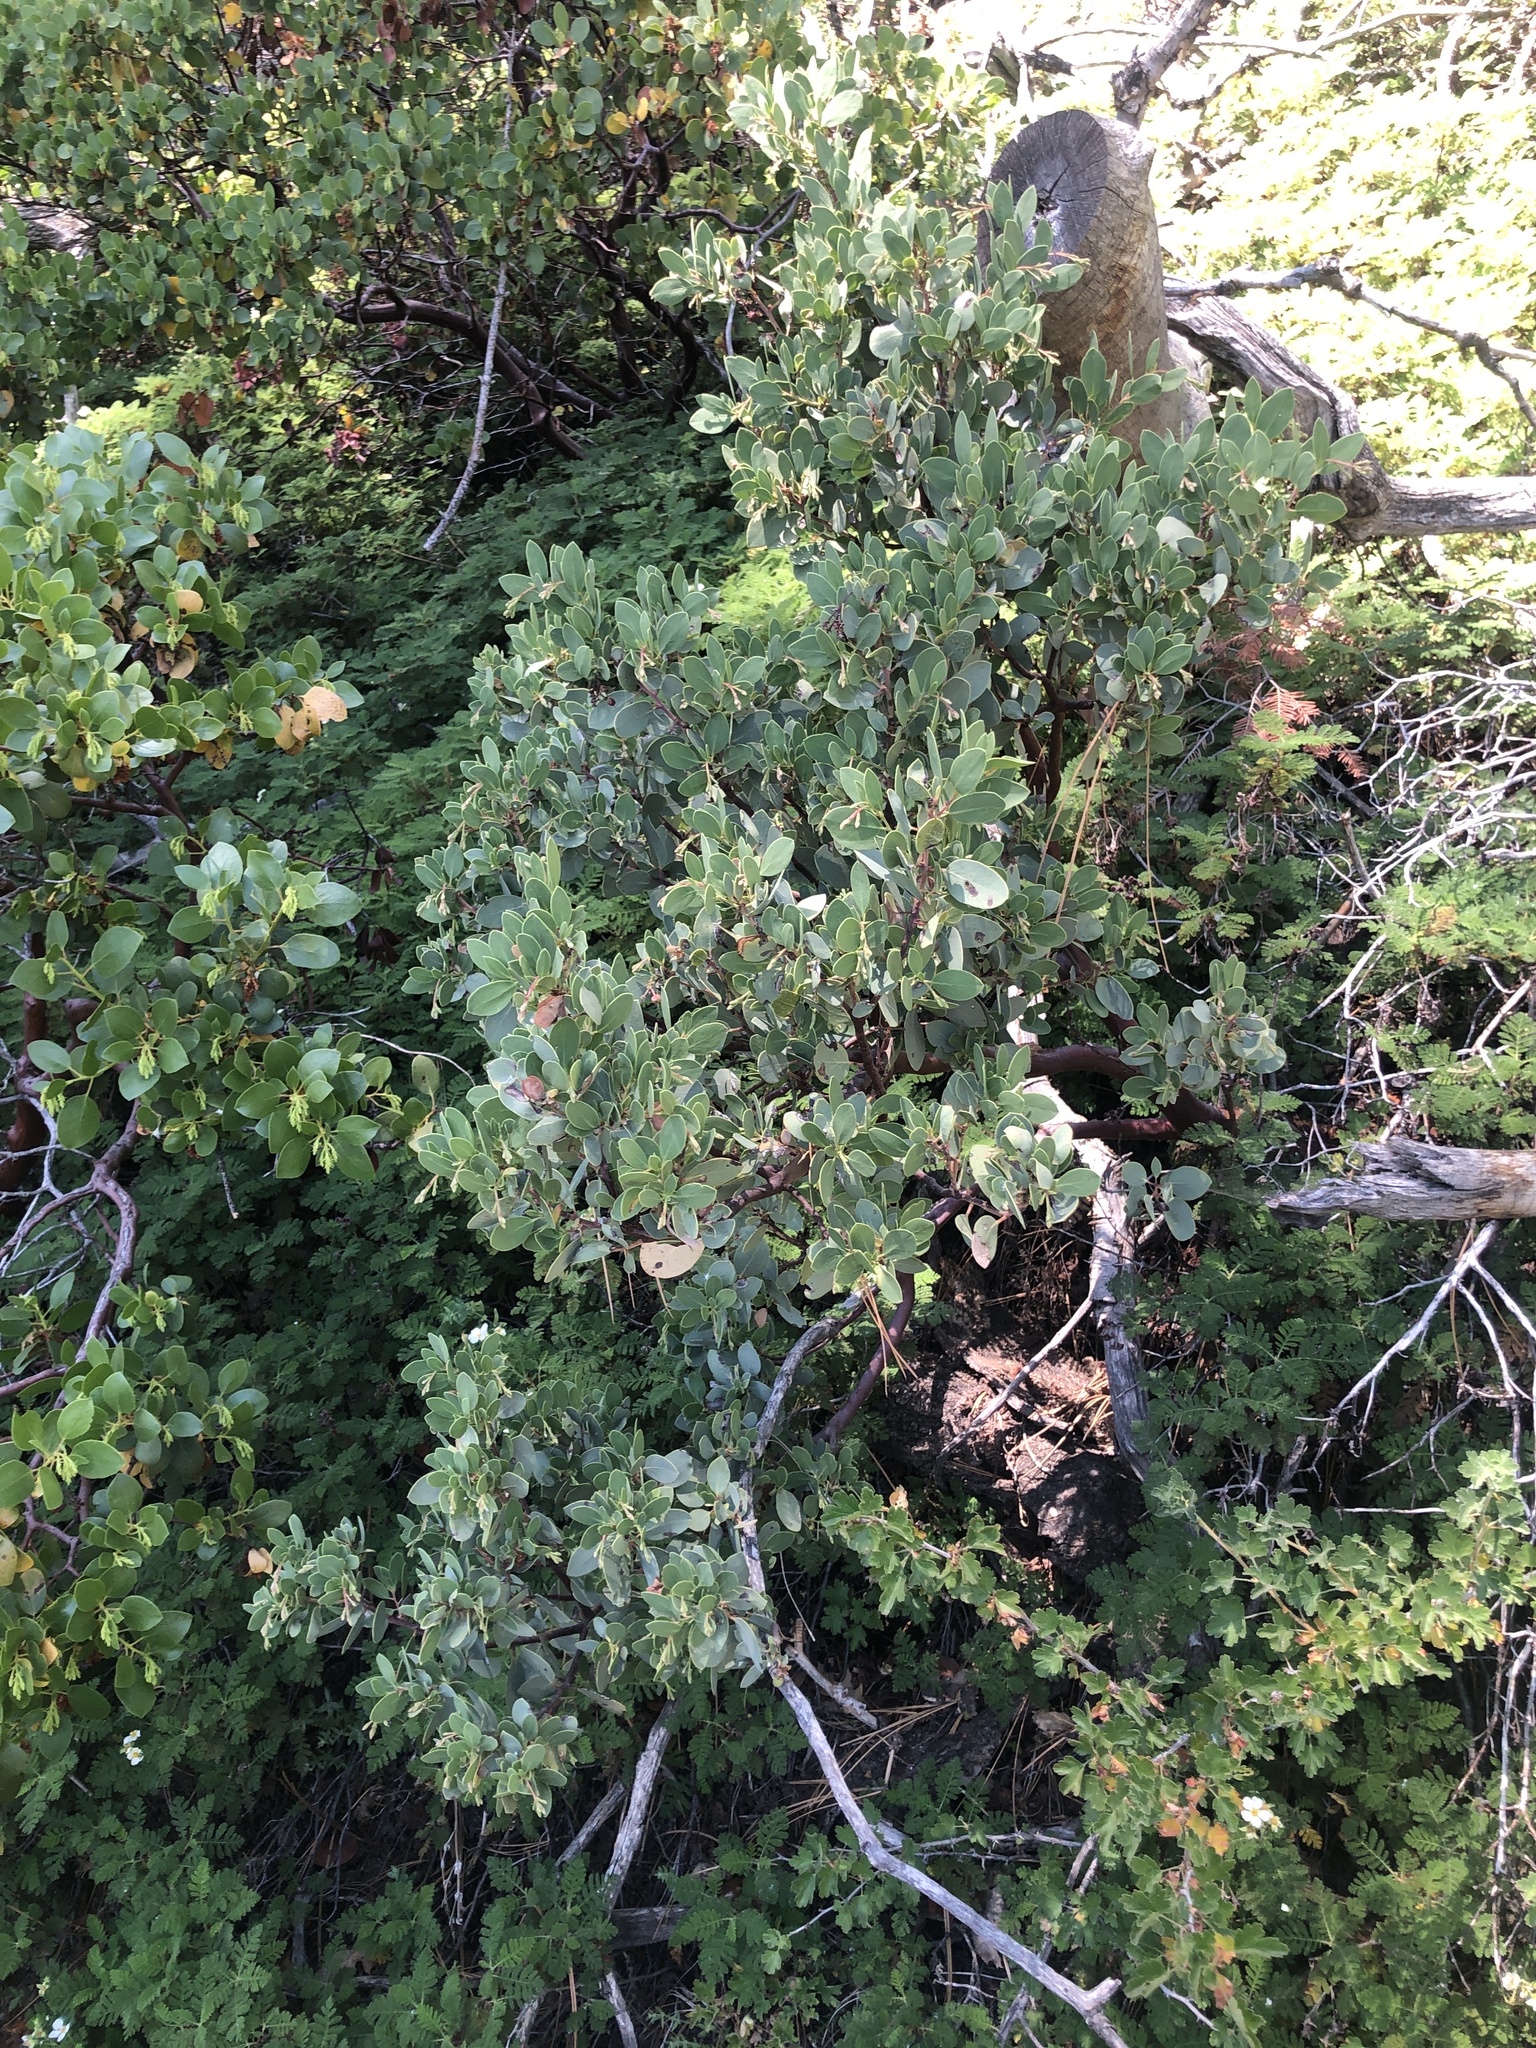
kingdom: Plantae
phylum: Tracheophyta
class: Magnoliopsida
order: Ericales
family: Ericaceae
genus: Arctostaphylos
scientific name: Arctostaphylos viscida
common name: White-leaf manzanita
